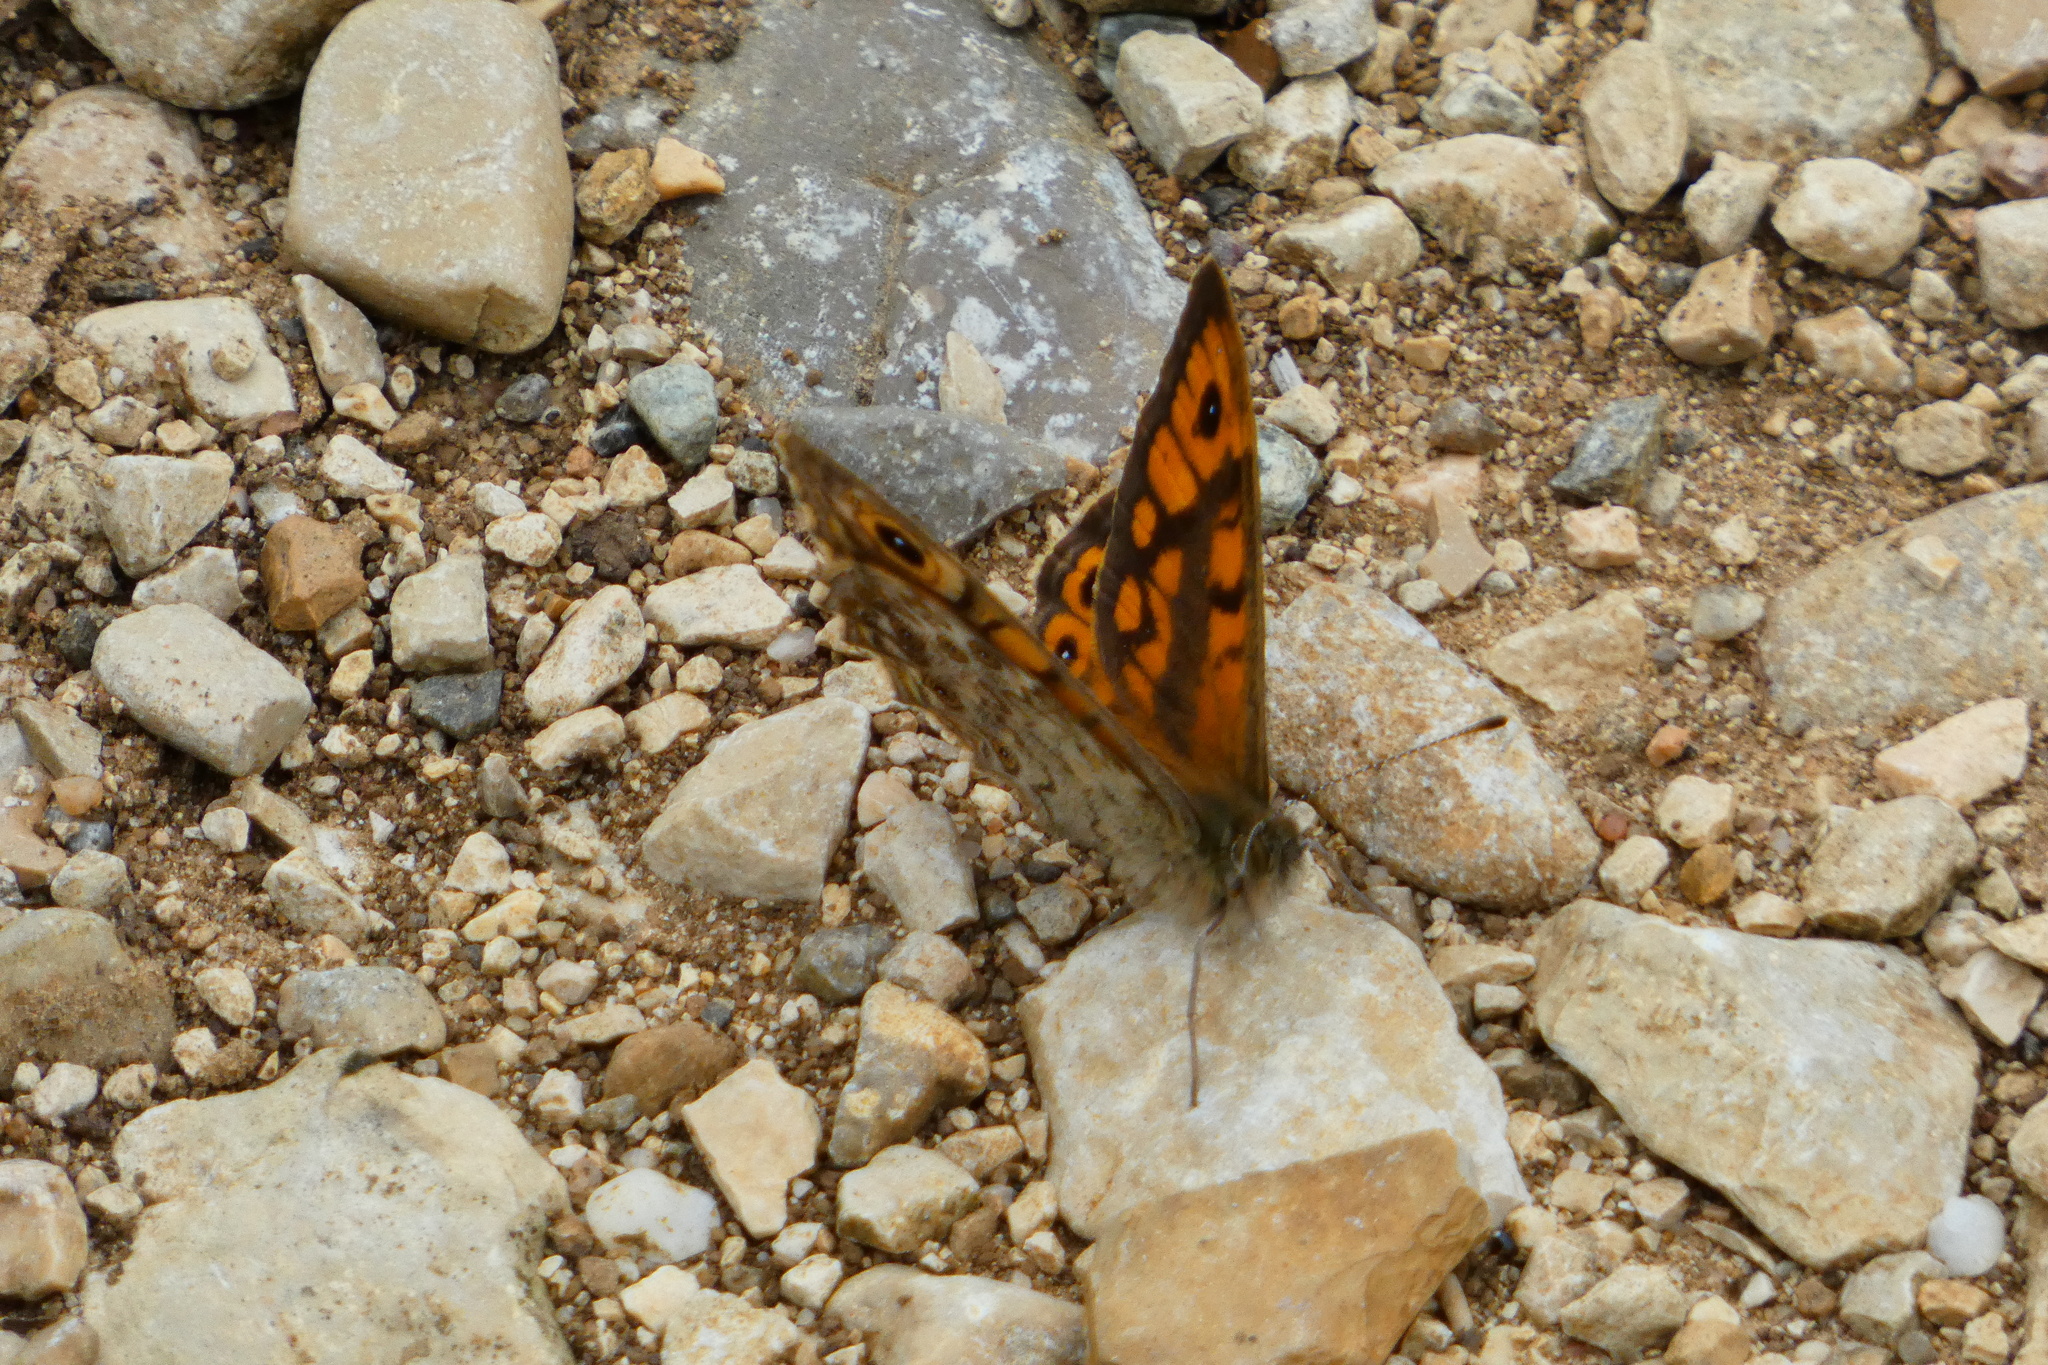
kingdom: Animalia
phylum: Arthropoda
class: Insecta
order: Lepidoptera
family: Nymphalidae
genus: Pararge
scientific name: Pararge Lasiommata megera
